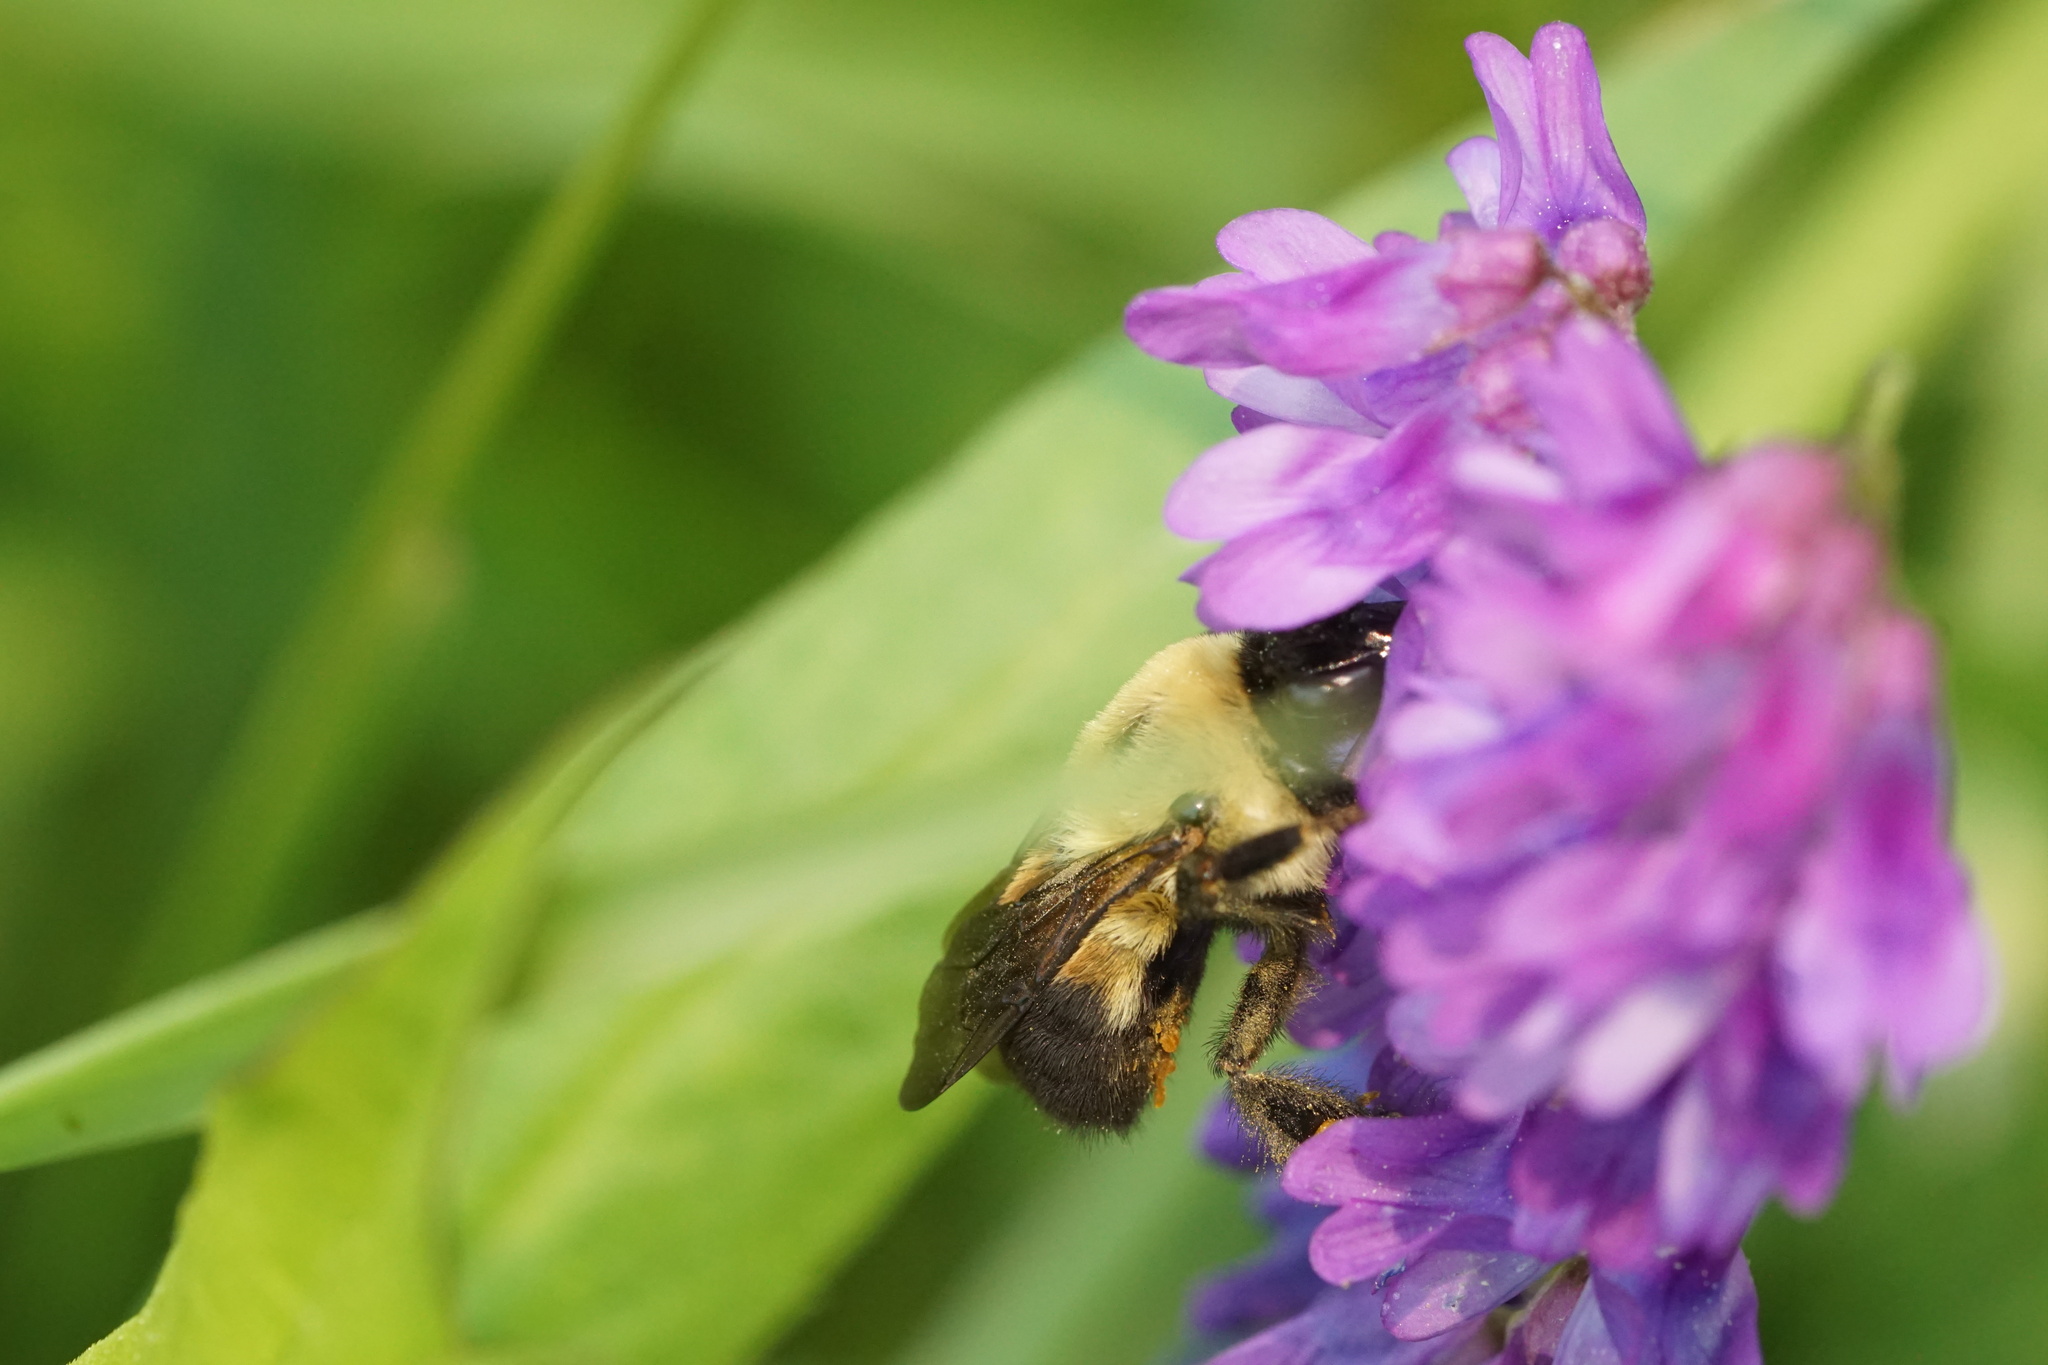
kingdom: Animalia
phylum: Arthropoda
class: Insecta
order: Hymenoptera
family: Apidae
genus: Bombus
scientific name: Bombus griseocollis
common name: Brown-belted bumble bee
